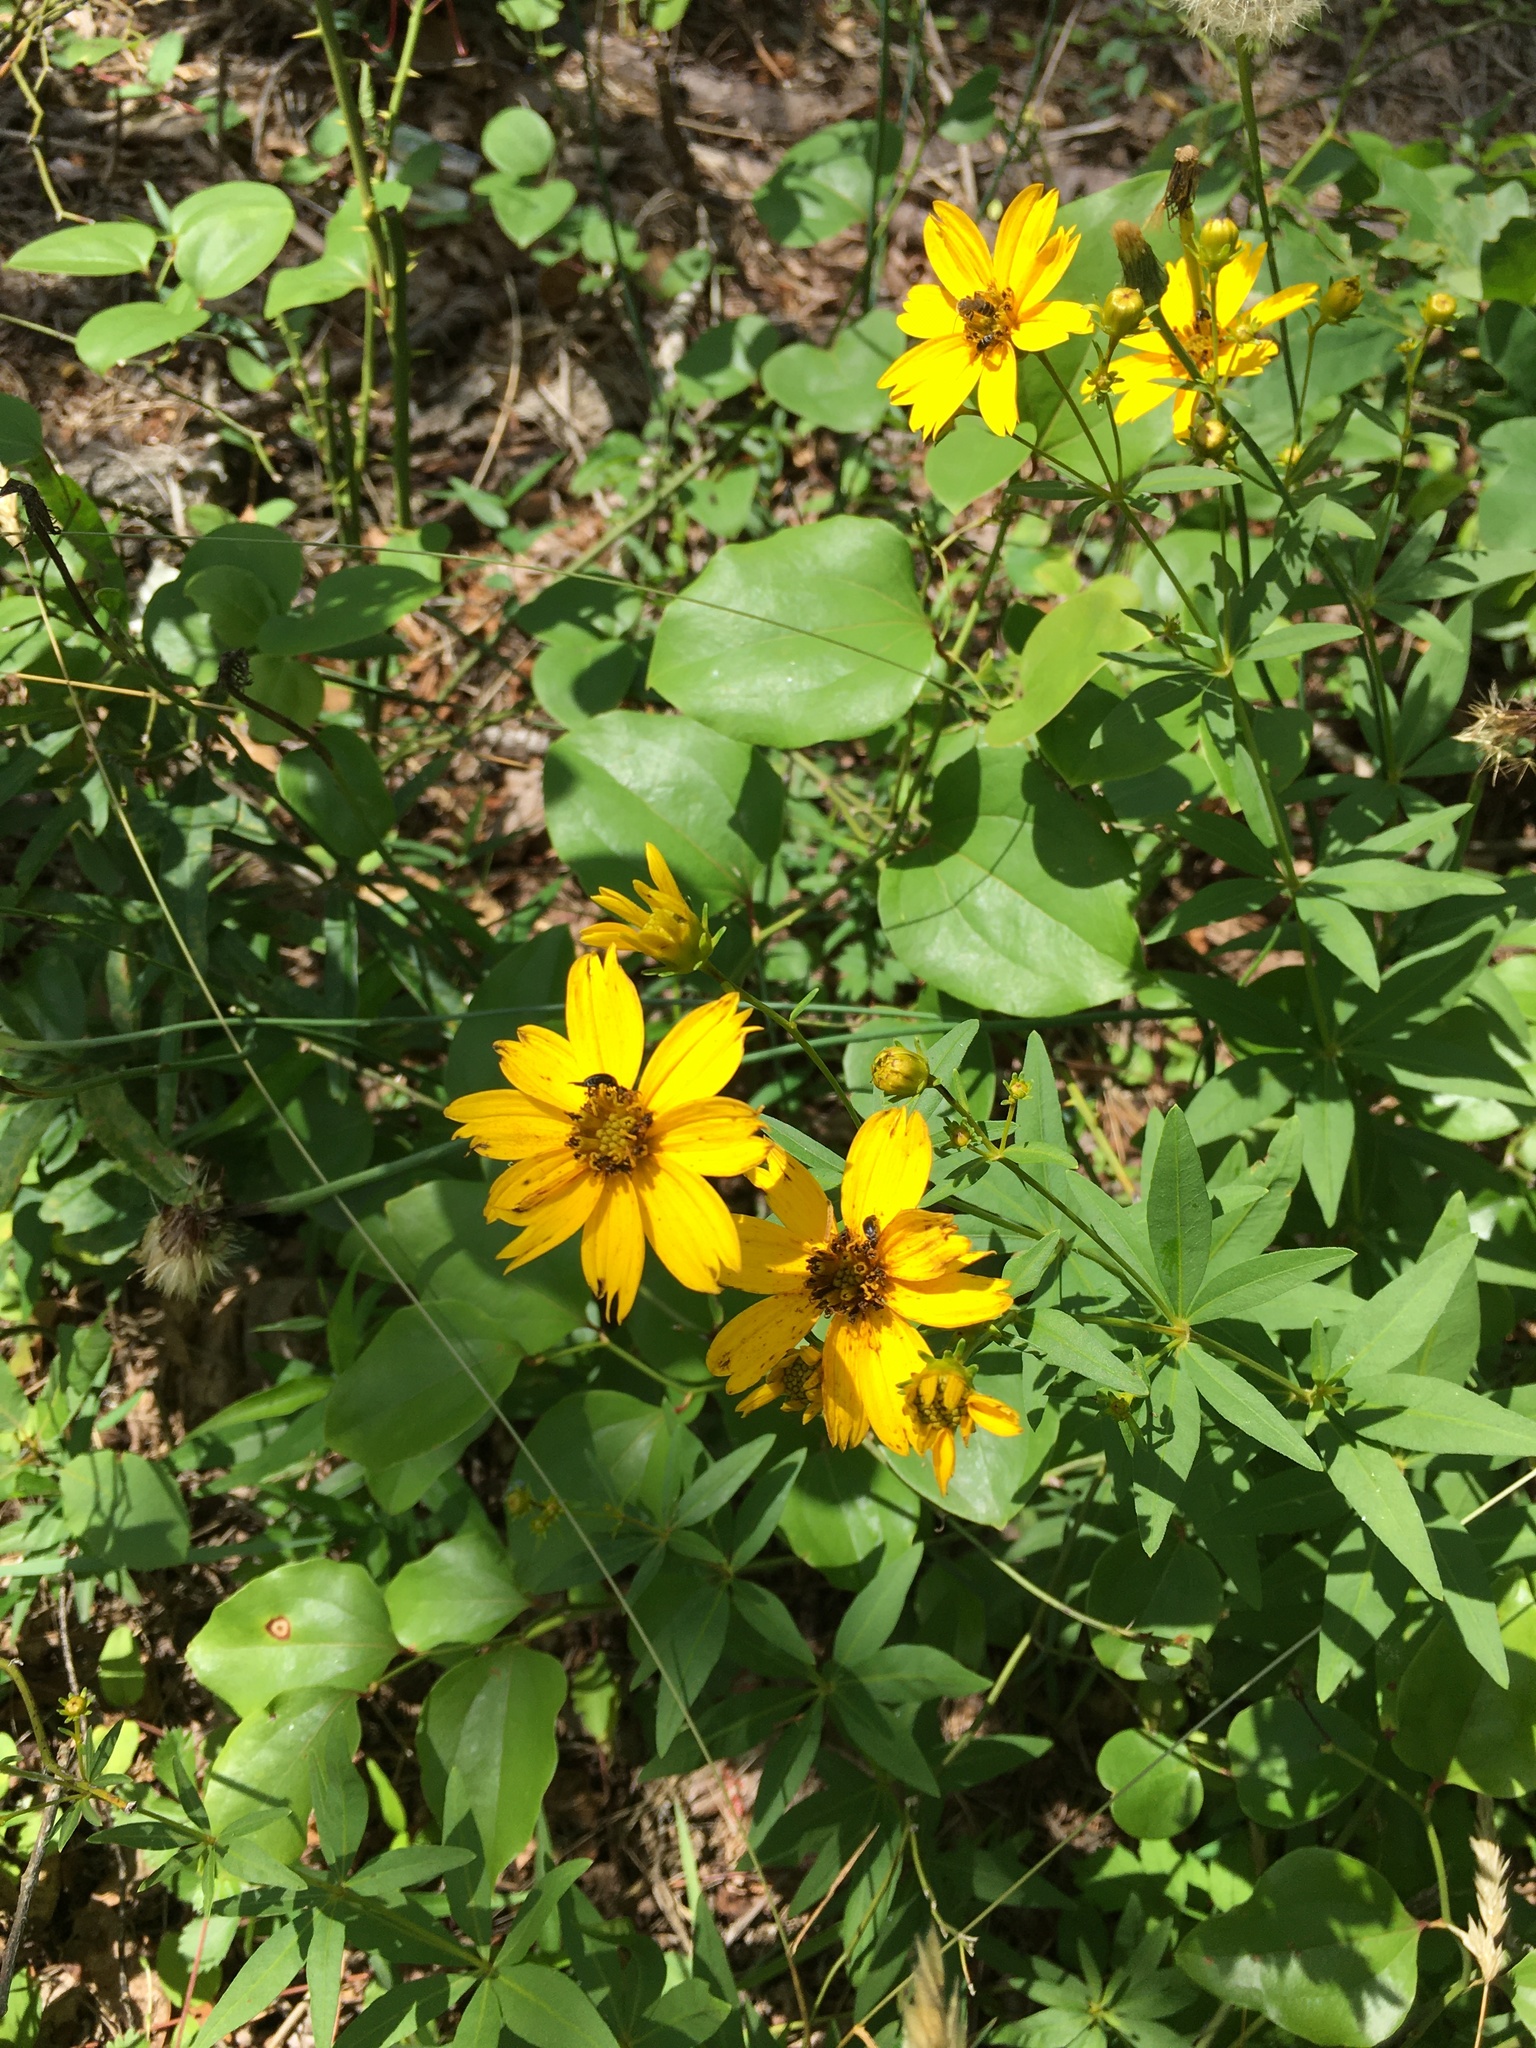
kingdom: Plantae
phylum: Tracheophyta
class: Magnoliopsida
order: Asterales
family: Asteraceae
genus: Coreopsis
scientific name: Coreopsis major
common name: Forest tickseed
